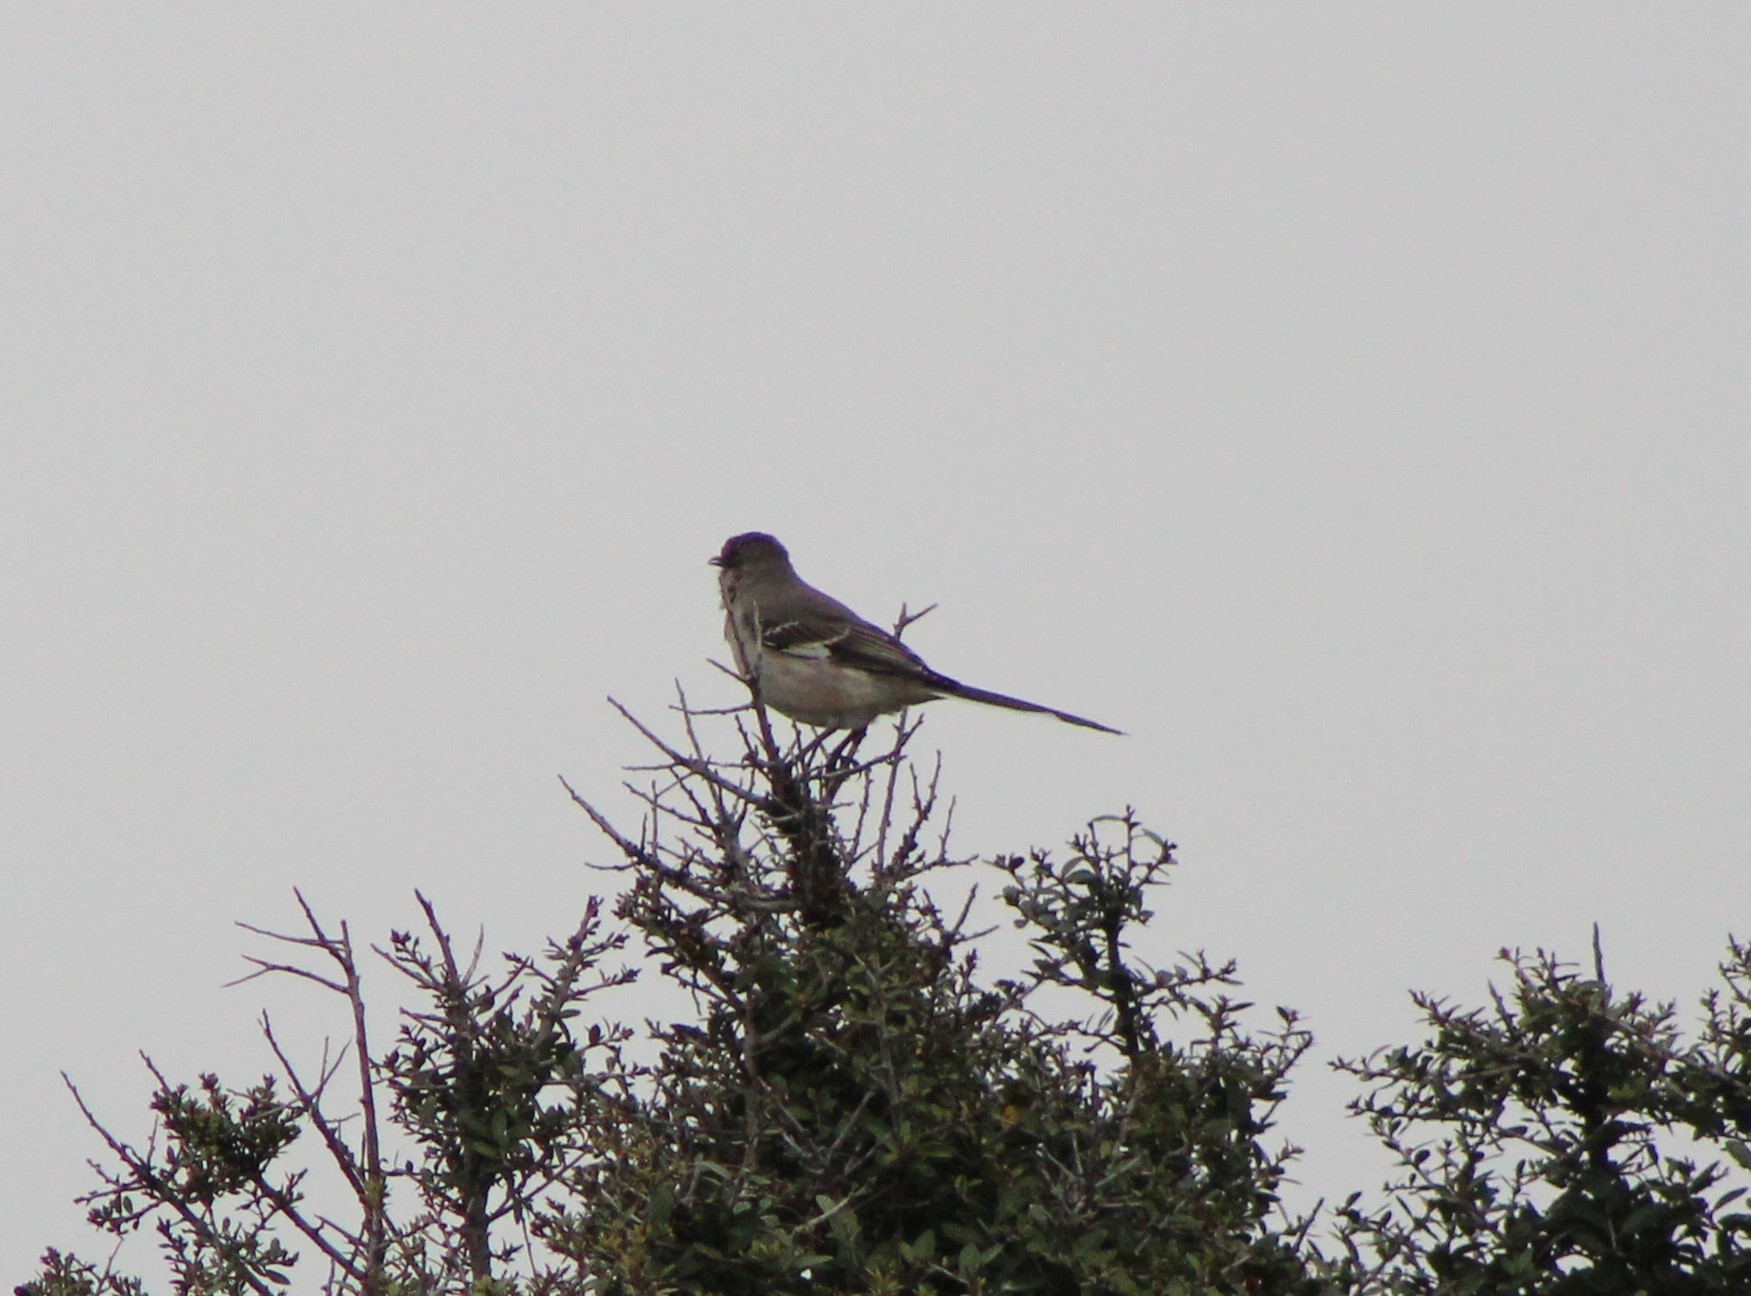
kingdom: Animalia
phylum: Chordata
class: Aves
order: Passeriformes
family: Mimidae
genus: Mimus
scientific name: Mimus polyglottos
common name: Northern mockingbird
